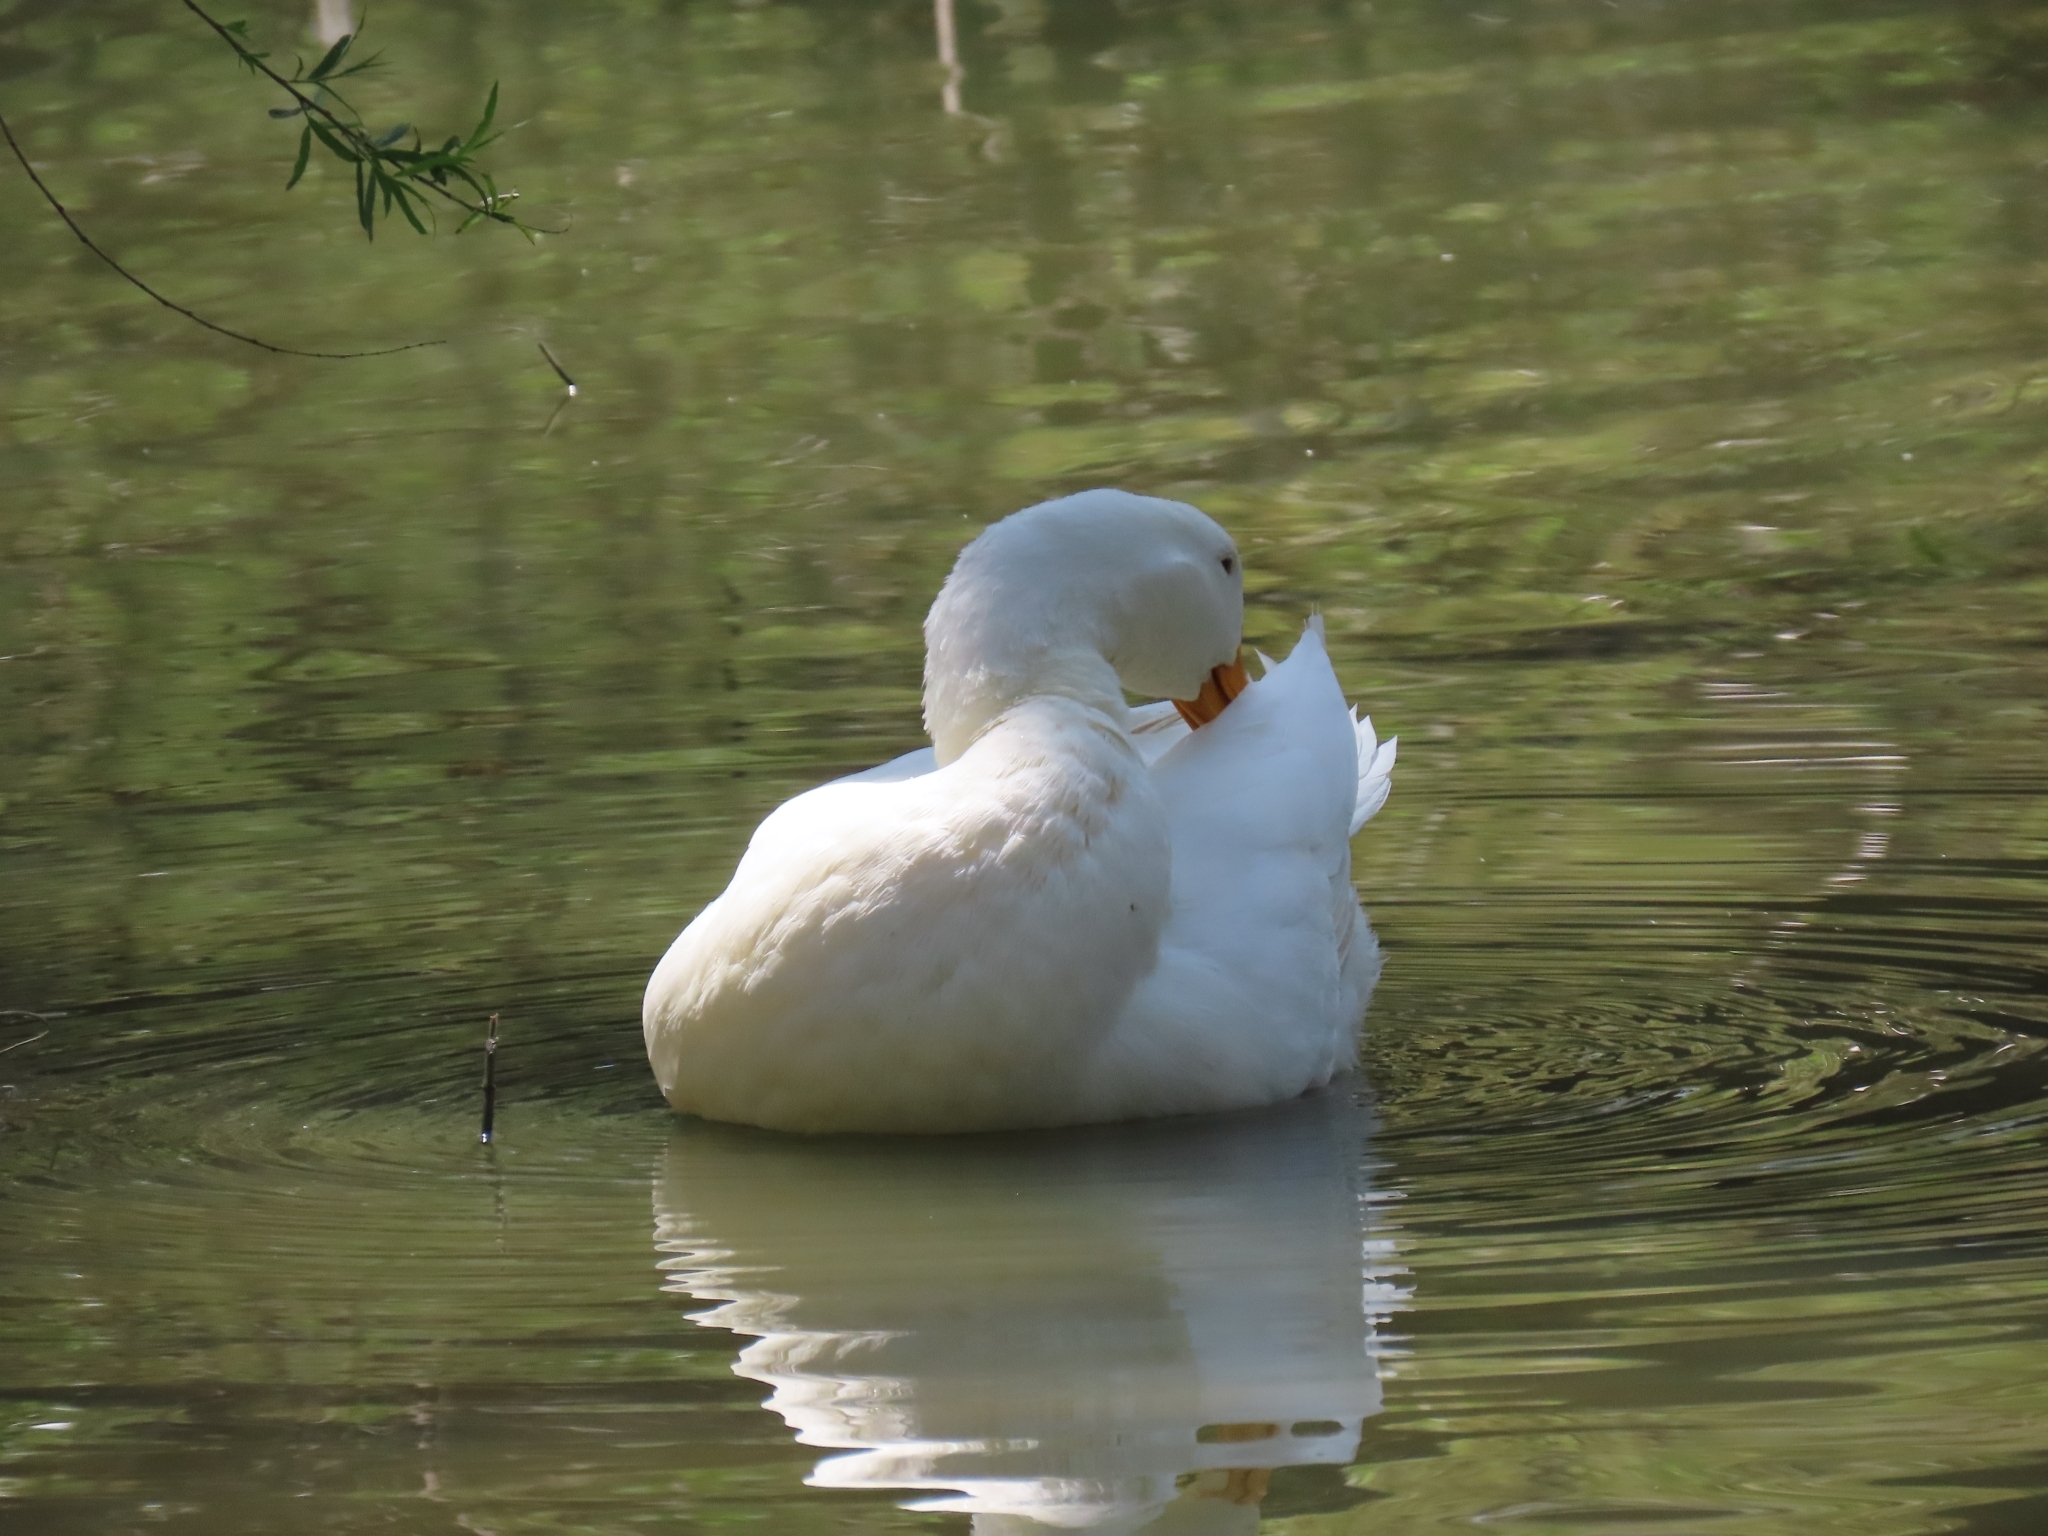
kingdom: Animalia
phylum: Chordata
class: Aves
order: Anseriformes
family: Anatidae
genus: Anas
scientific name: Anas platyrhynchos
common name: Mallard
